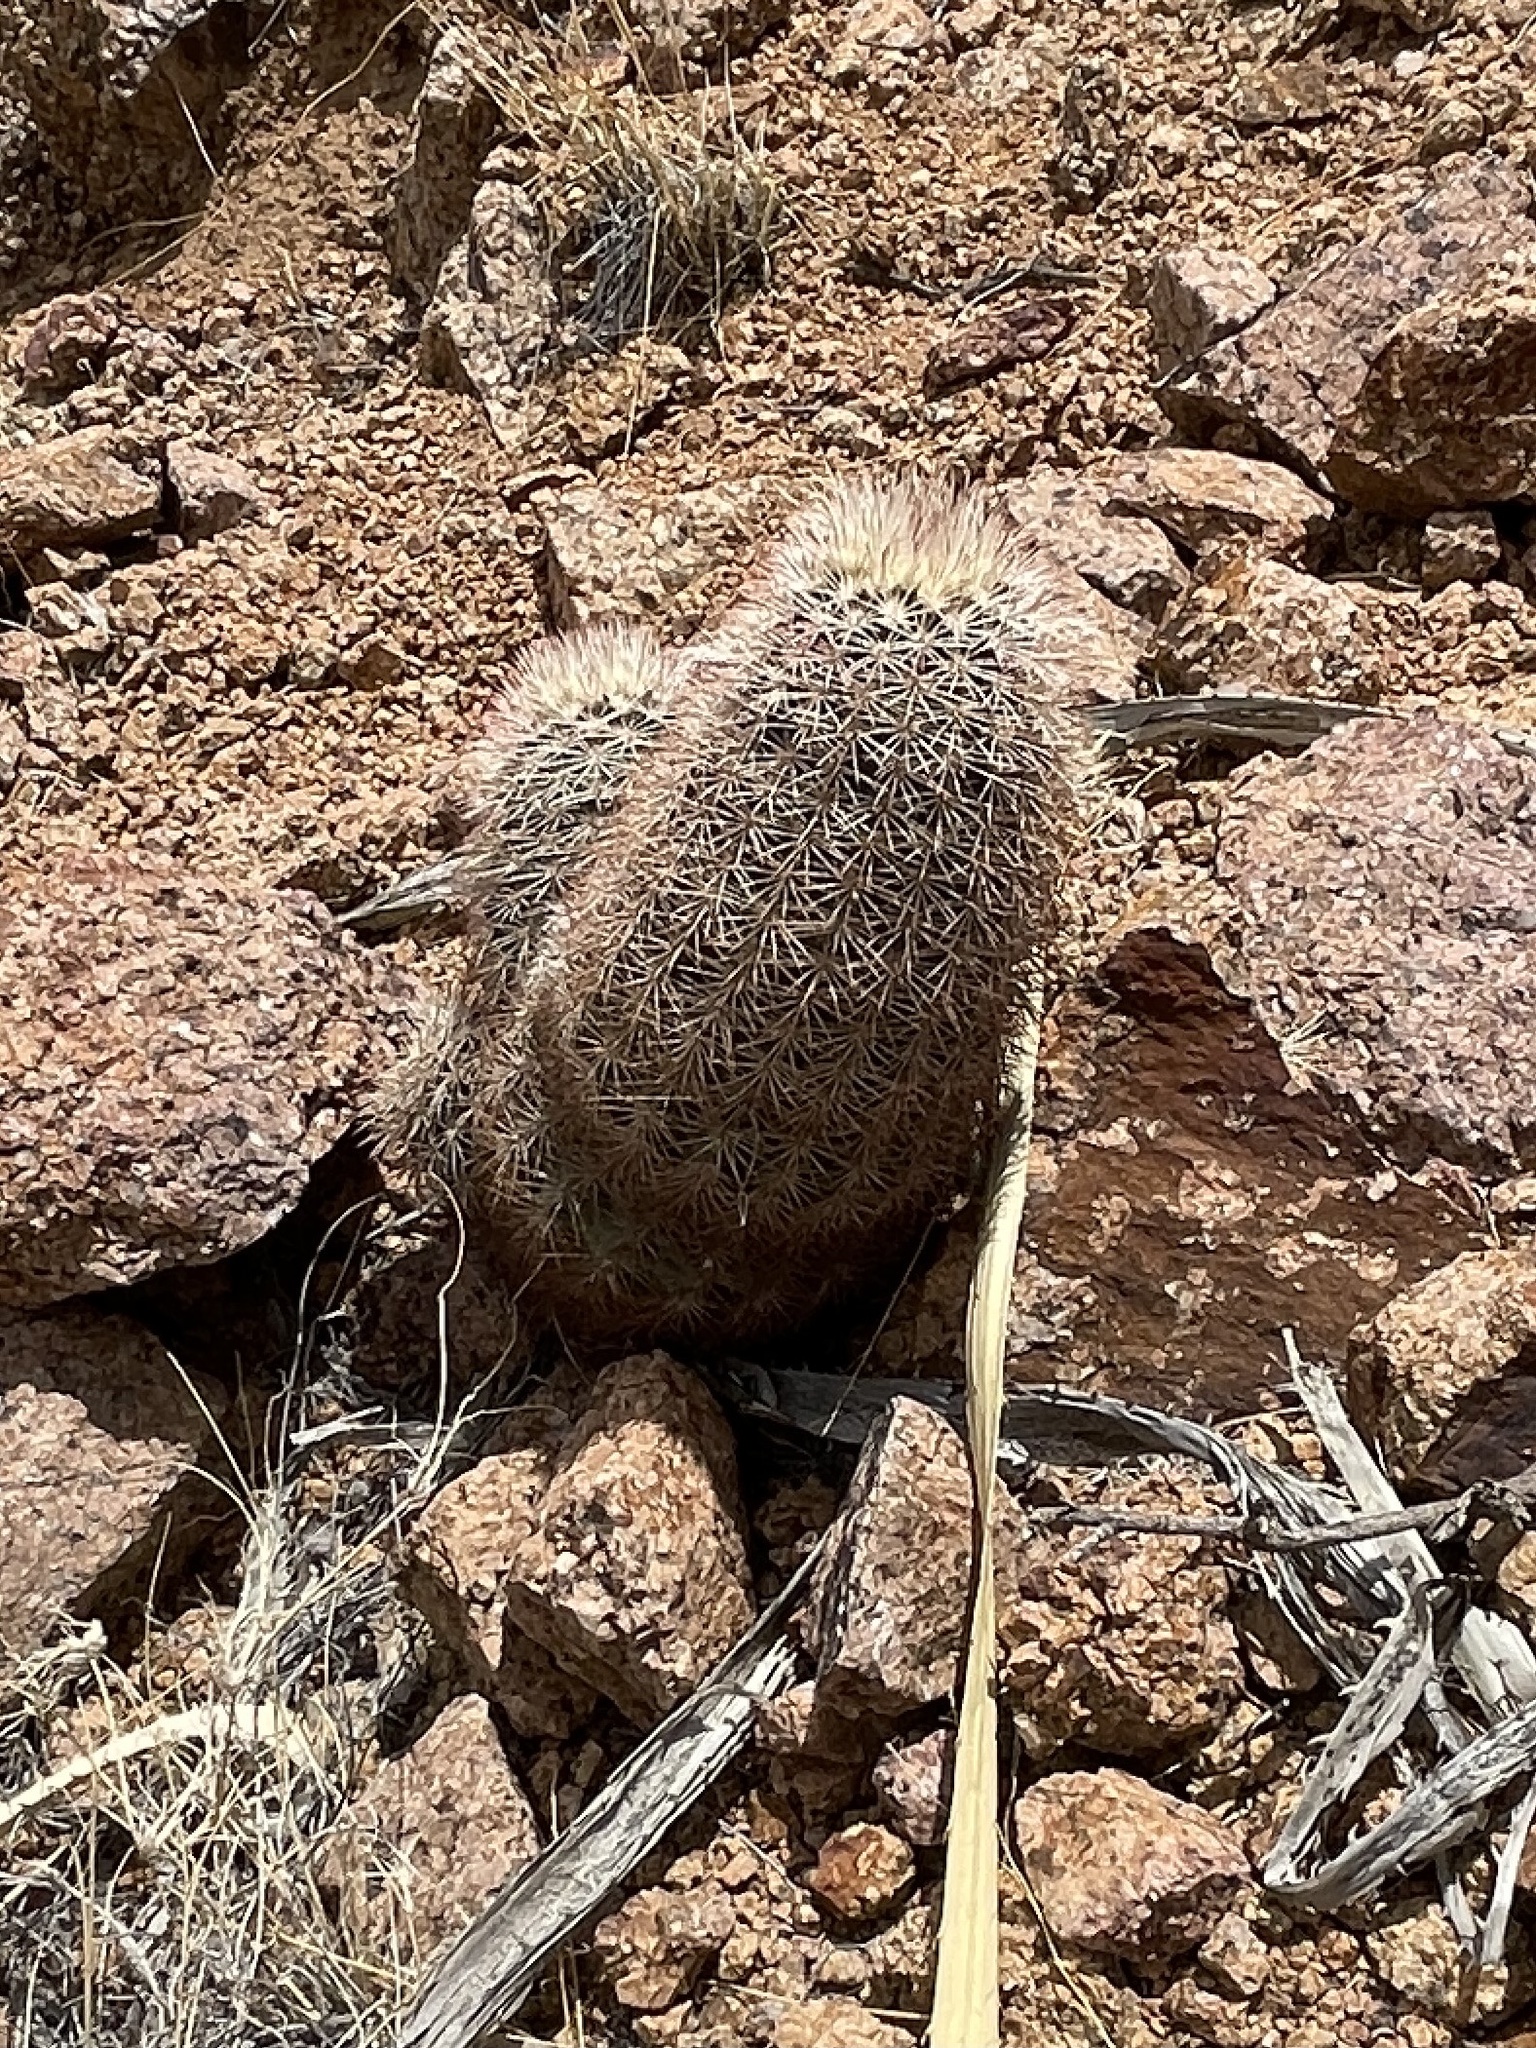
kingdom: Plantae
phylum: Tracheophyta
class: Magnoliopsida
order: Caryophyllales
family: Cactaceae
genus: Echinocereus
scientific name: Echinocereus dasyacanthus
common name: Spiny hedgehog cactus
